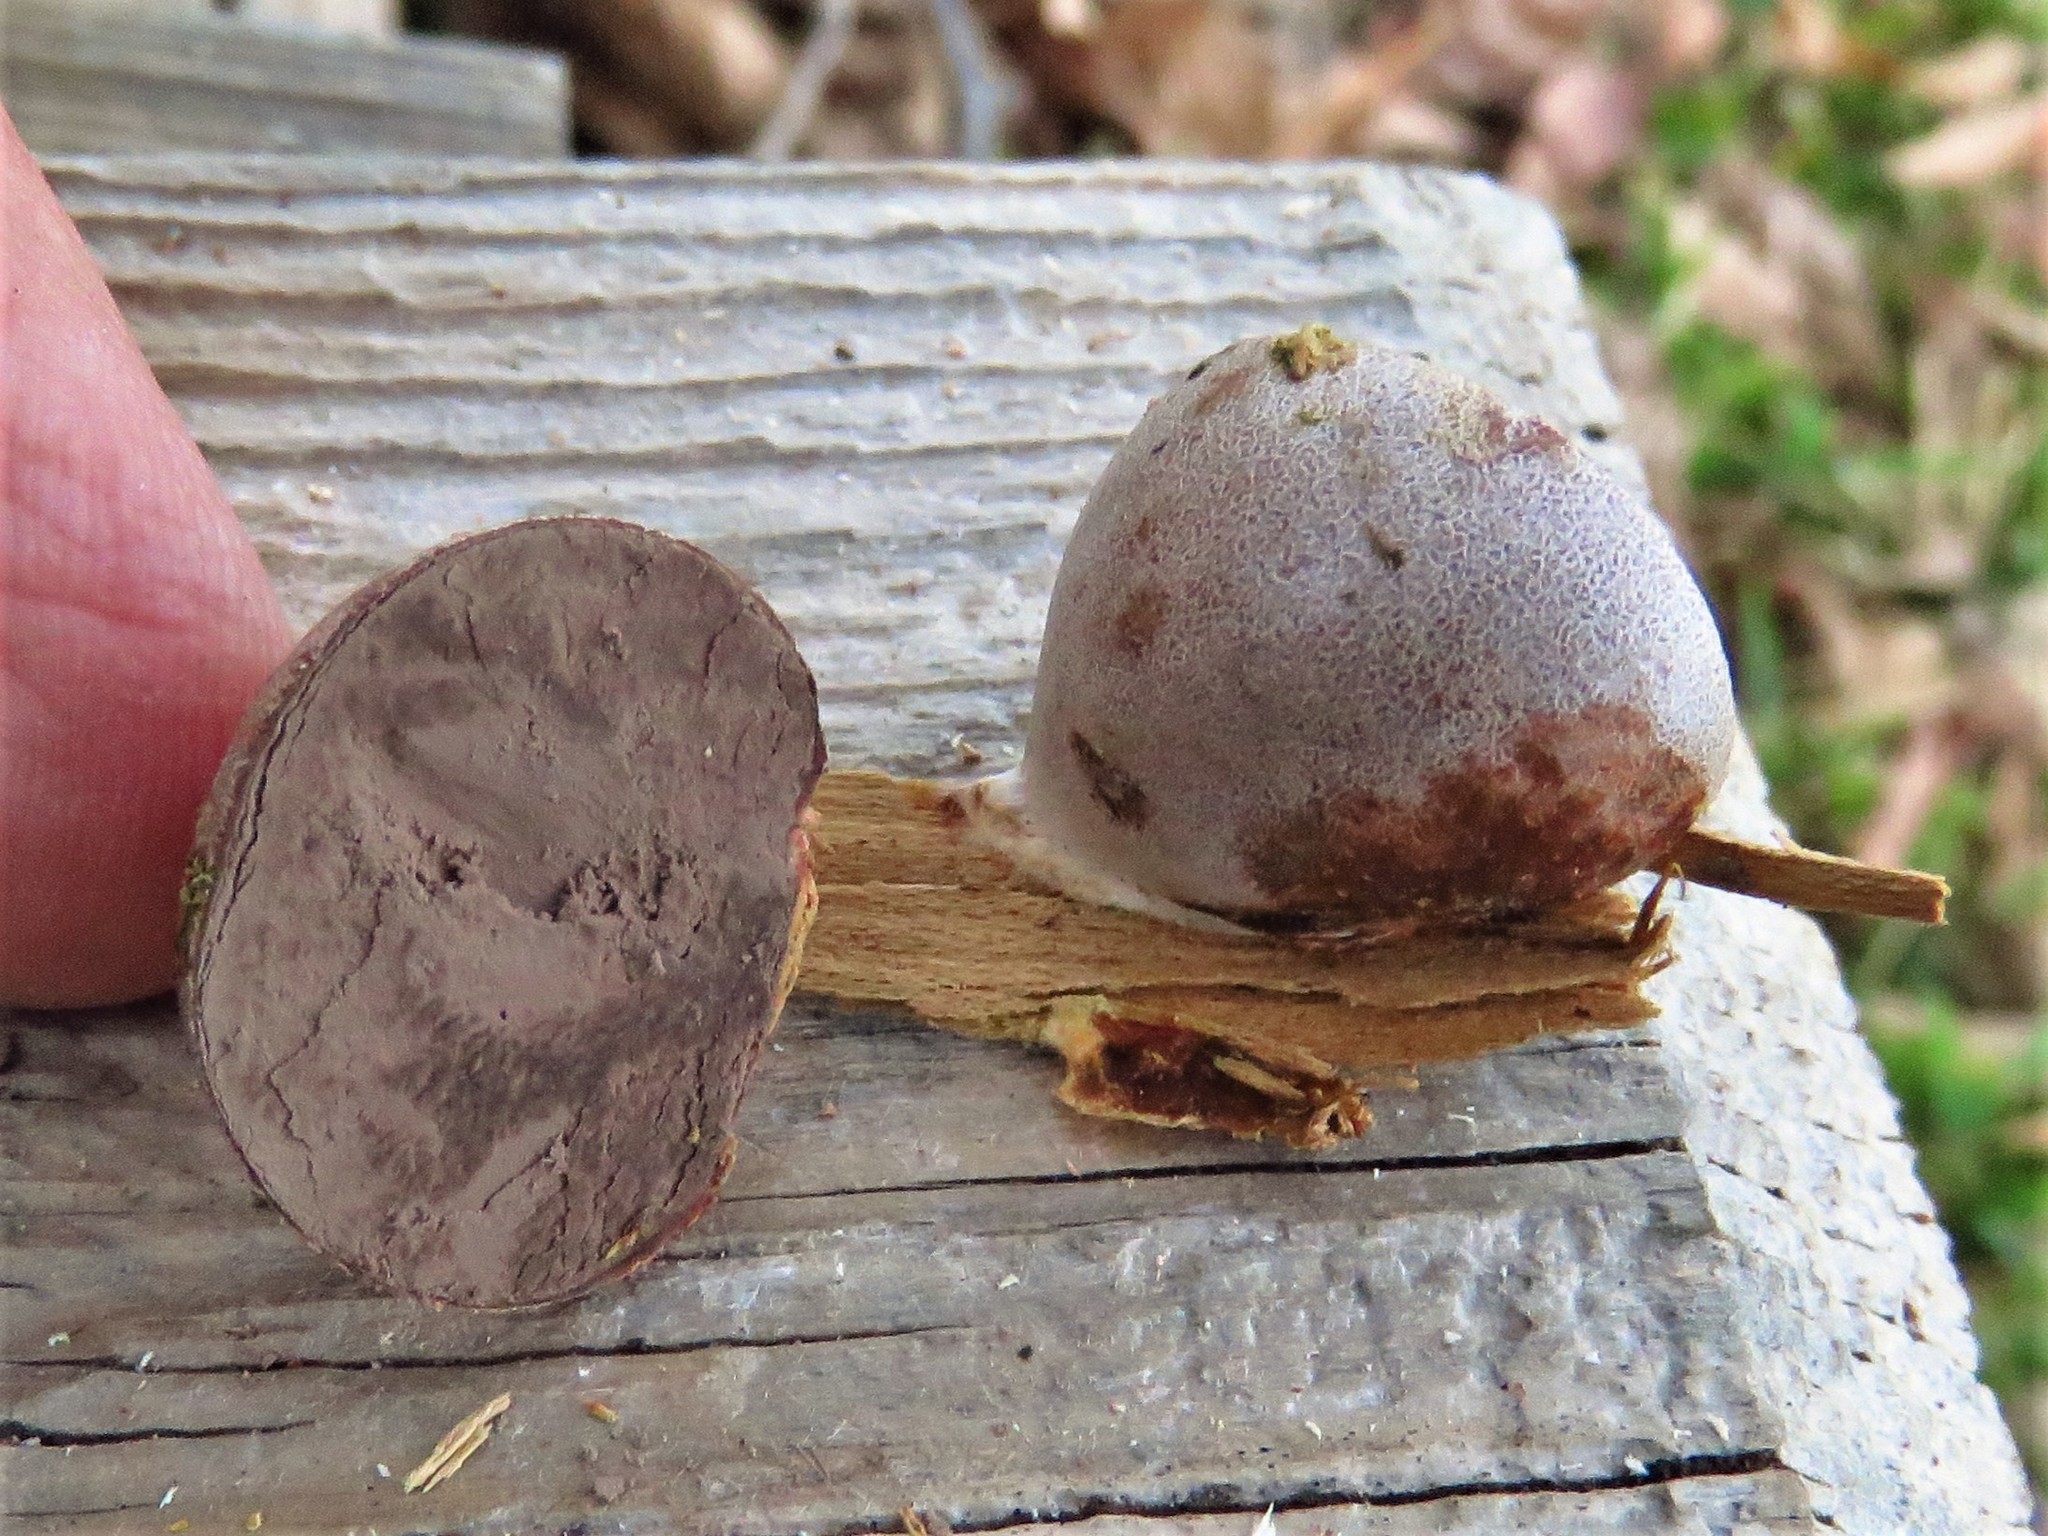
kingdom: Protozoa
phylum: Mycetozoa
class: Myxomycetes
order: Cribrariales
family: Tubiferaceae
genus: Reticularia
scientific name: Reticularia lycoperdon
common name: False puffball
